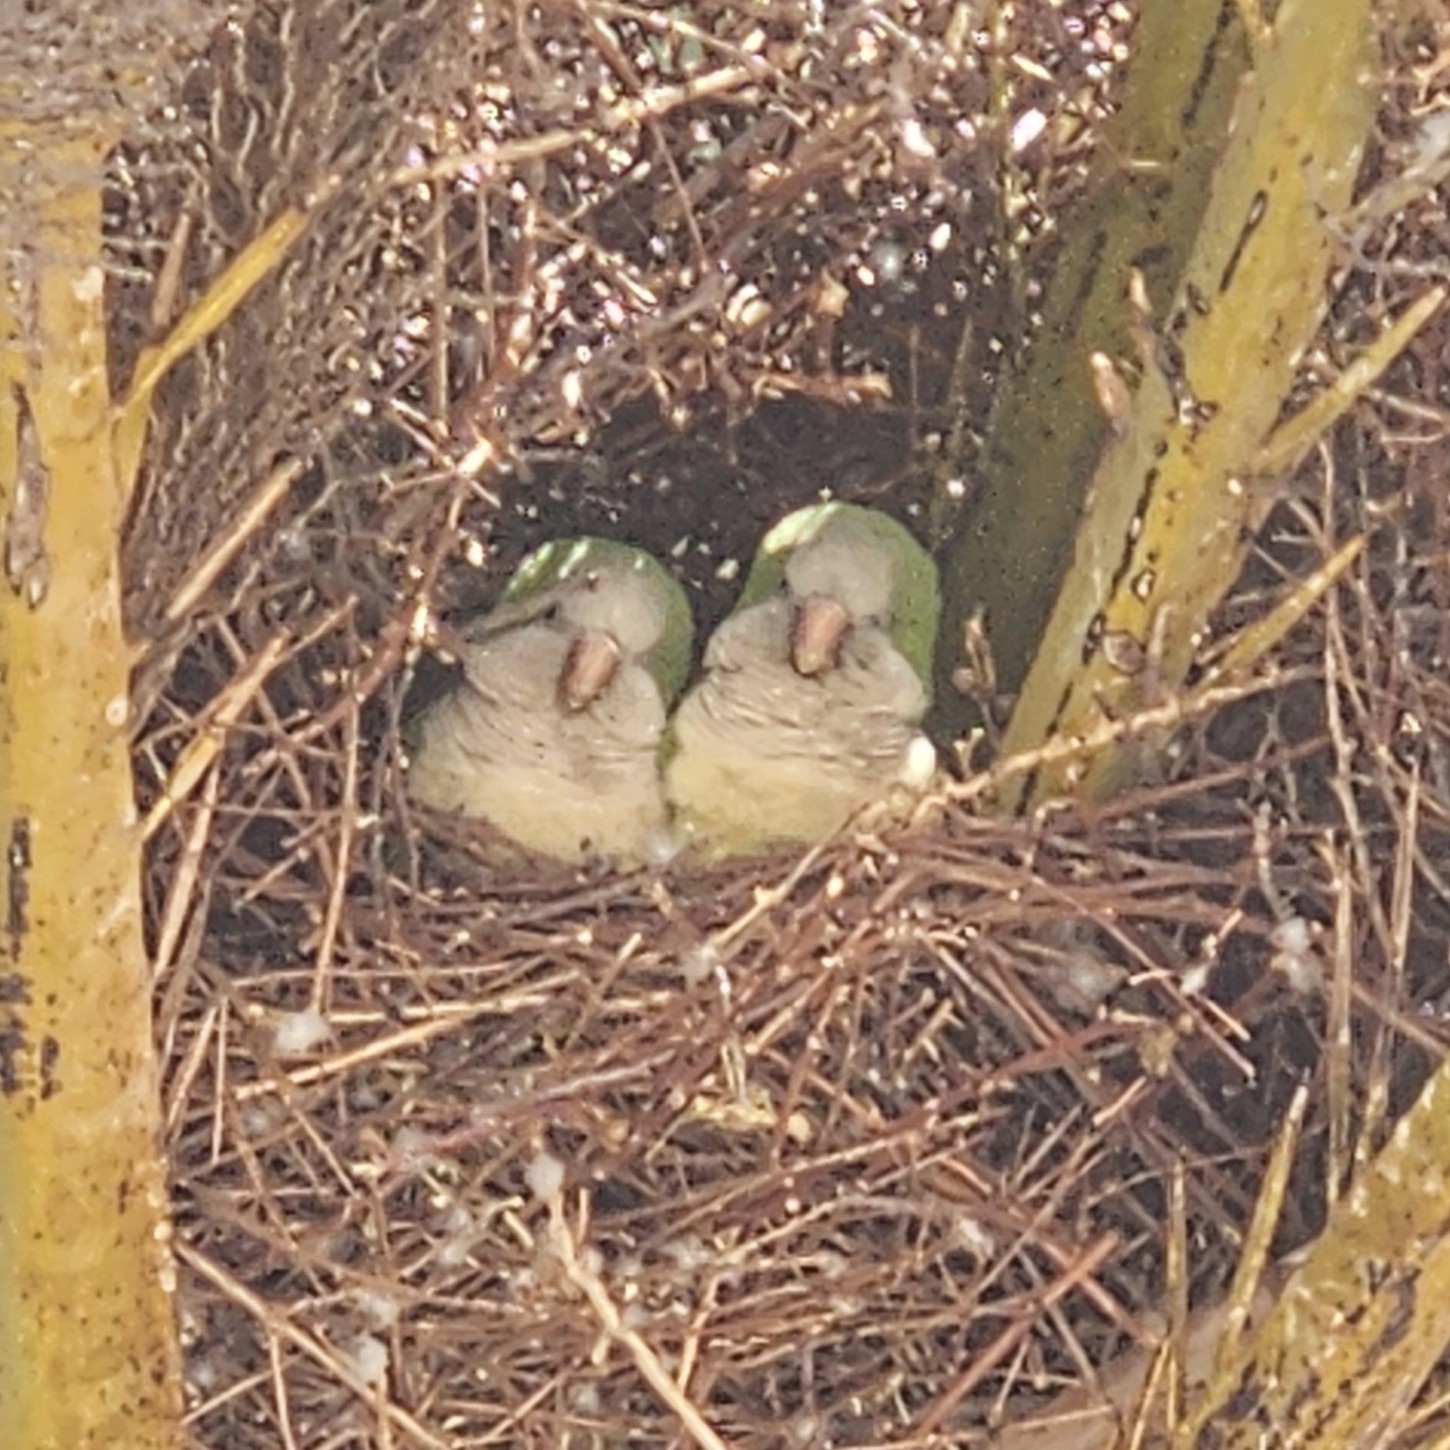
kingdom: Animalia
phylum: Chordata
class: Aves
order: Psittaciformes
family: Psittacidae
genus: Myiopsitta
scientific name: Myiopsitta monachus
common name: Monk parakeet
